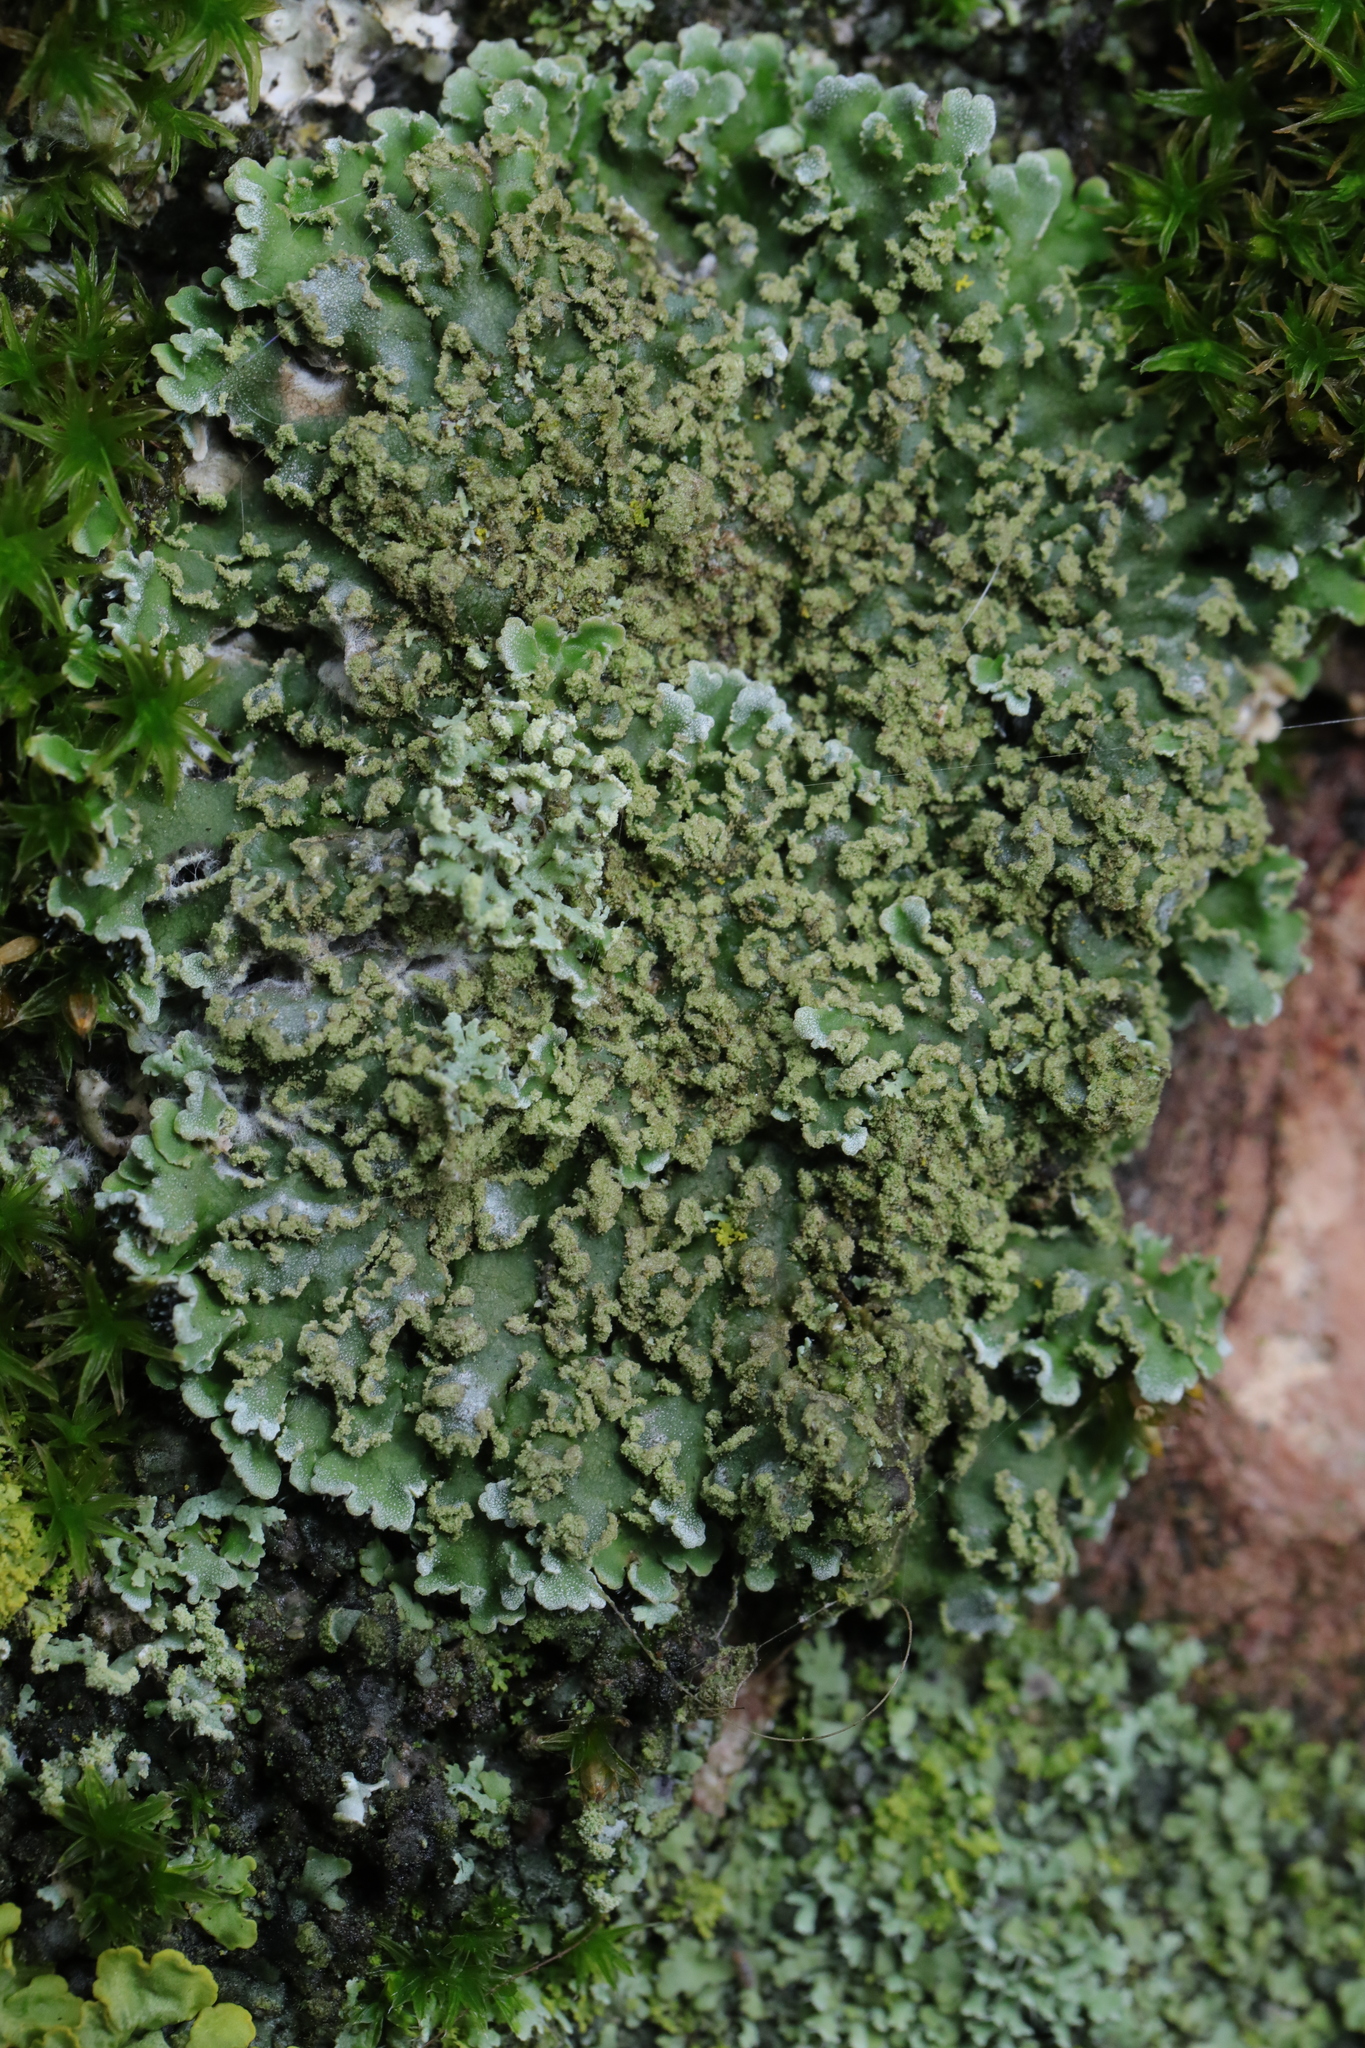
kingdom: Fungi
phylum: Ascomycota
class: Lecanoromycetes
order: Caliciales
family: Physciaceae
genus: Physconia
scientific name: Physconia enteroxantha
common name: Yellow-edged frost lichen
